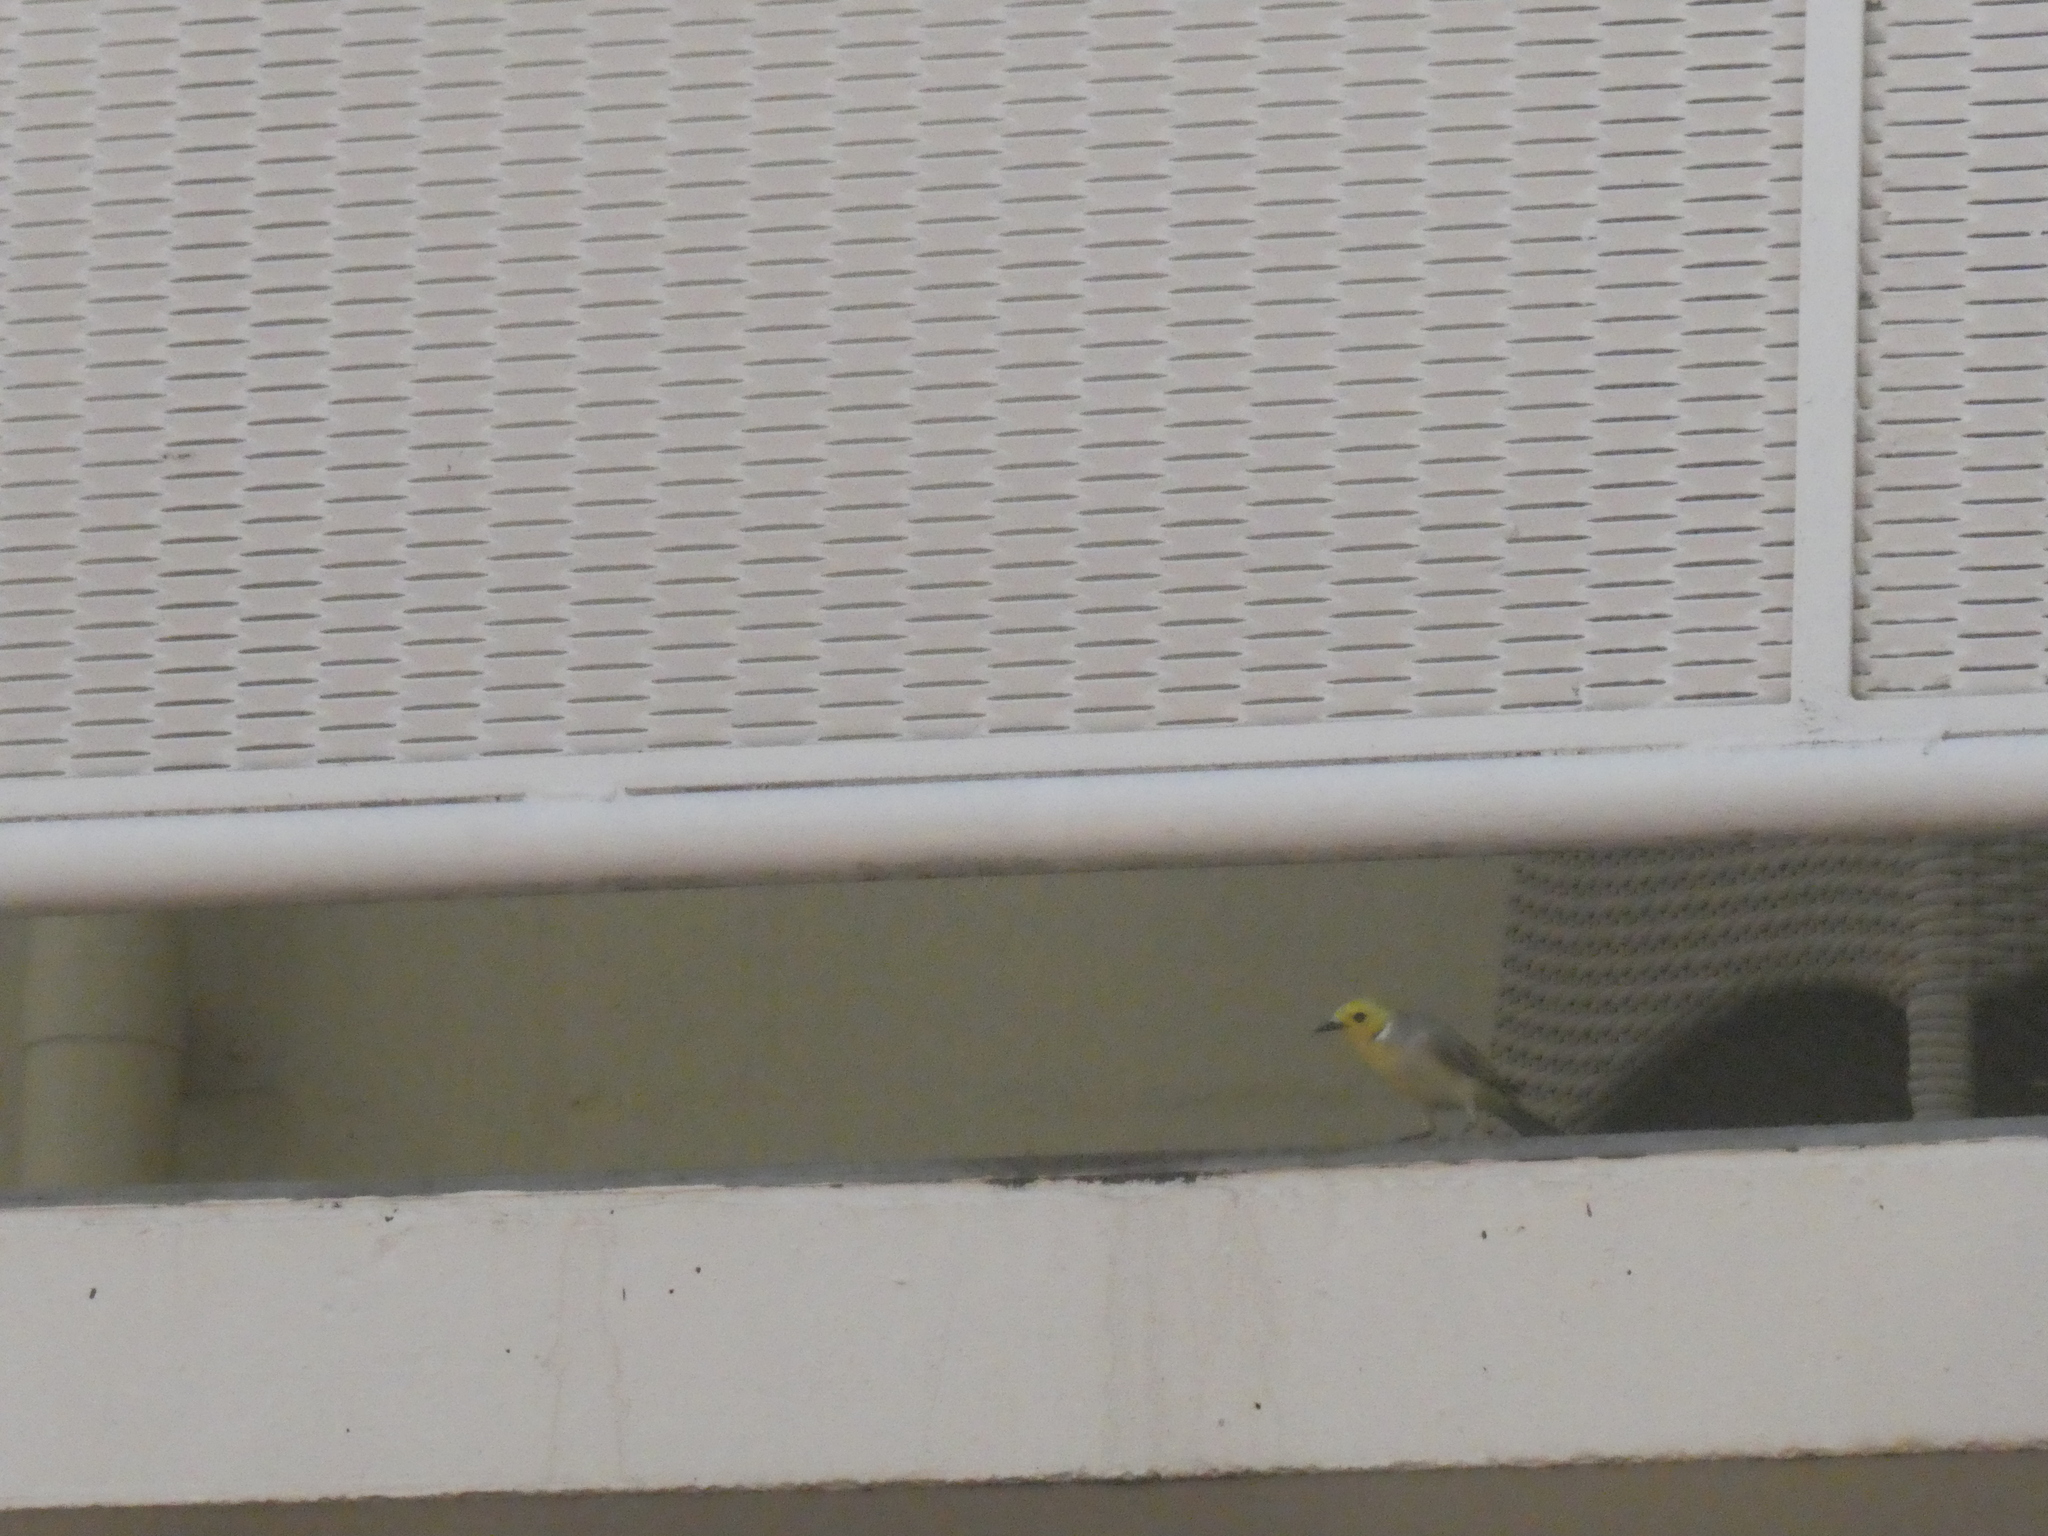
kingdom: Animalia
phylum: Chordata
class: Aves
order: Passeriformes
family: Meliphagidae
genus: Ptilotula
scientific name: Ptilotula penicillata
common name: White-plumed honeyeater
